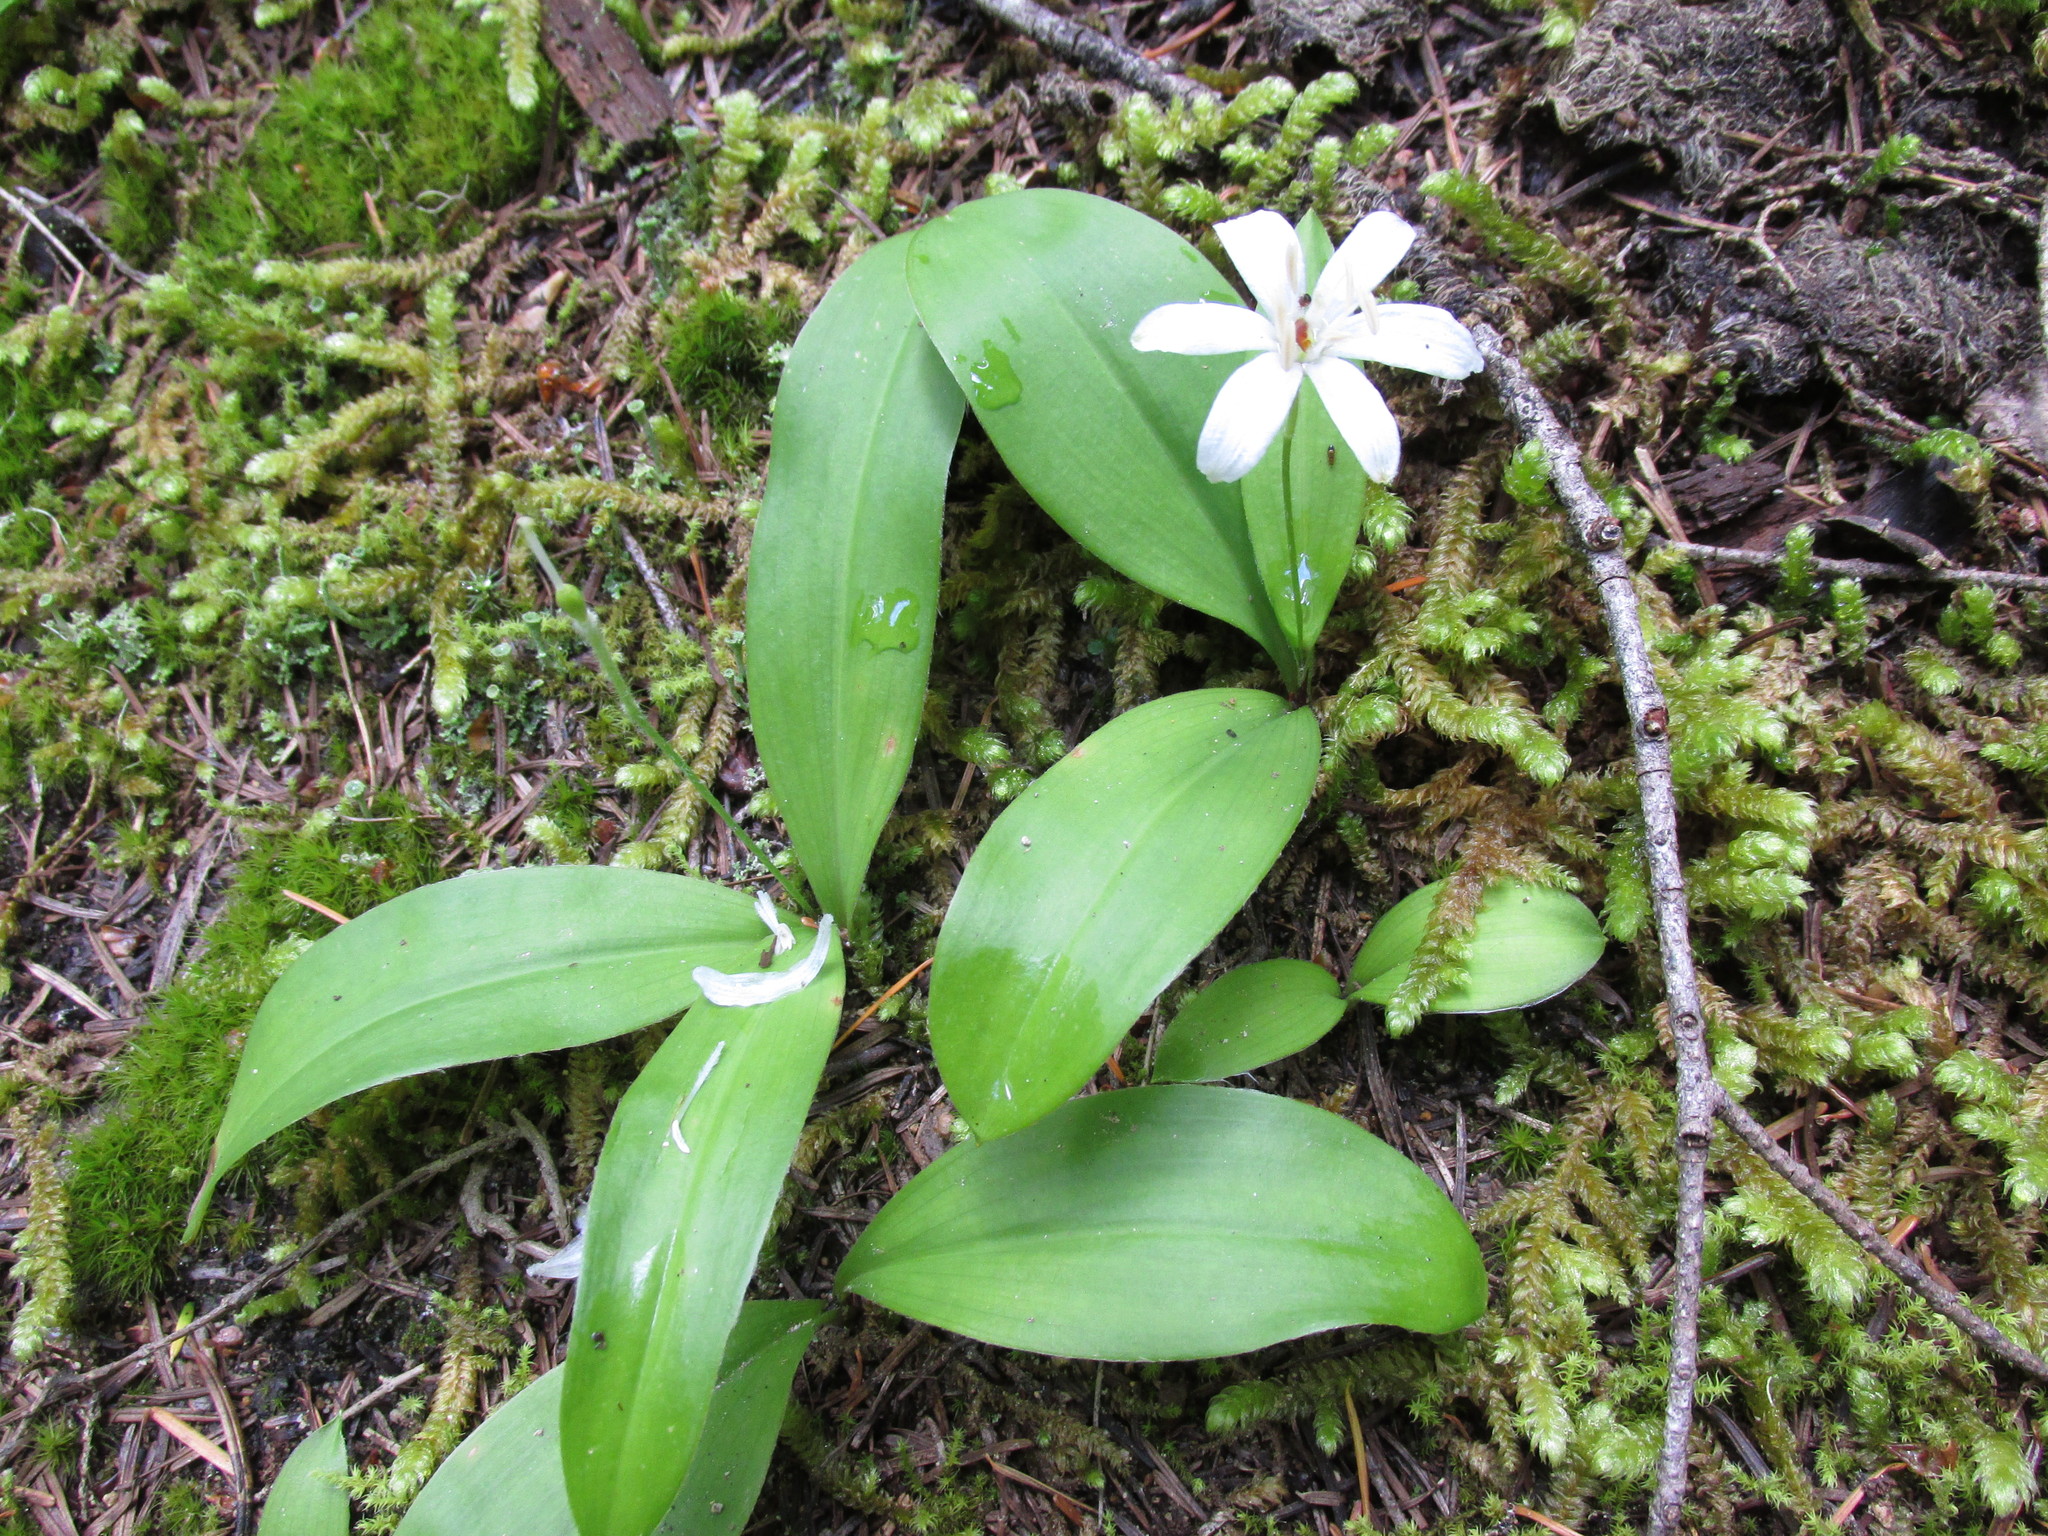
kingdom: Plantae
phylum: Tracheophyta
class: Liliopsida
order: Liliales
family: Liliaceae
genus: Clintonia
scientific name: Clintonia uniflora
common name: Queen's cup
